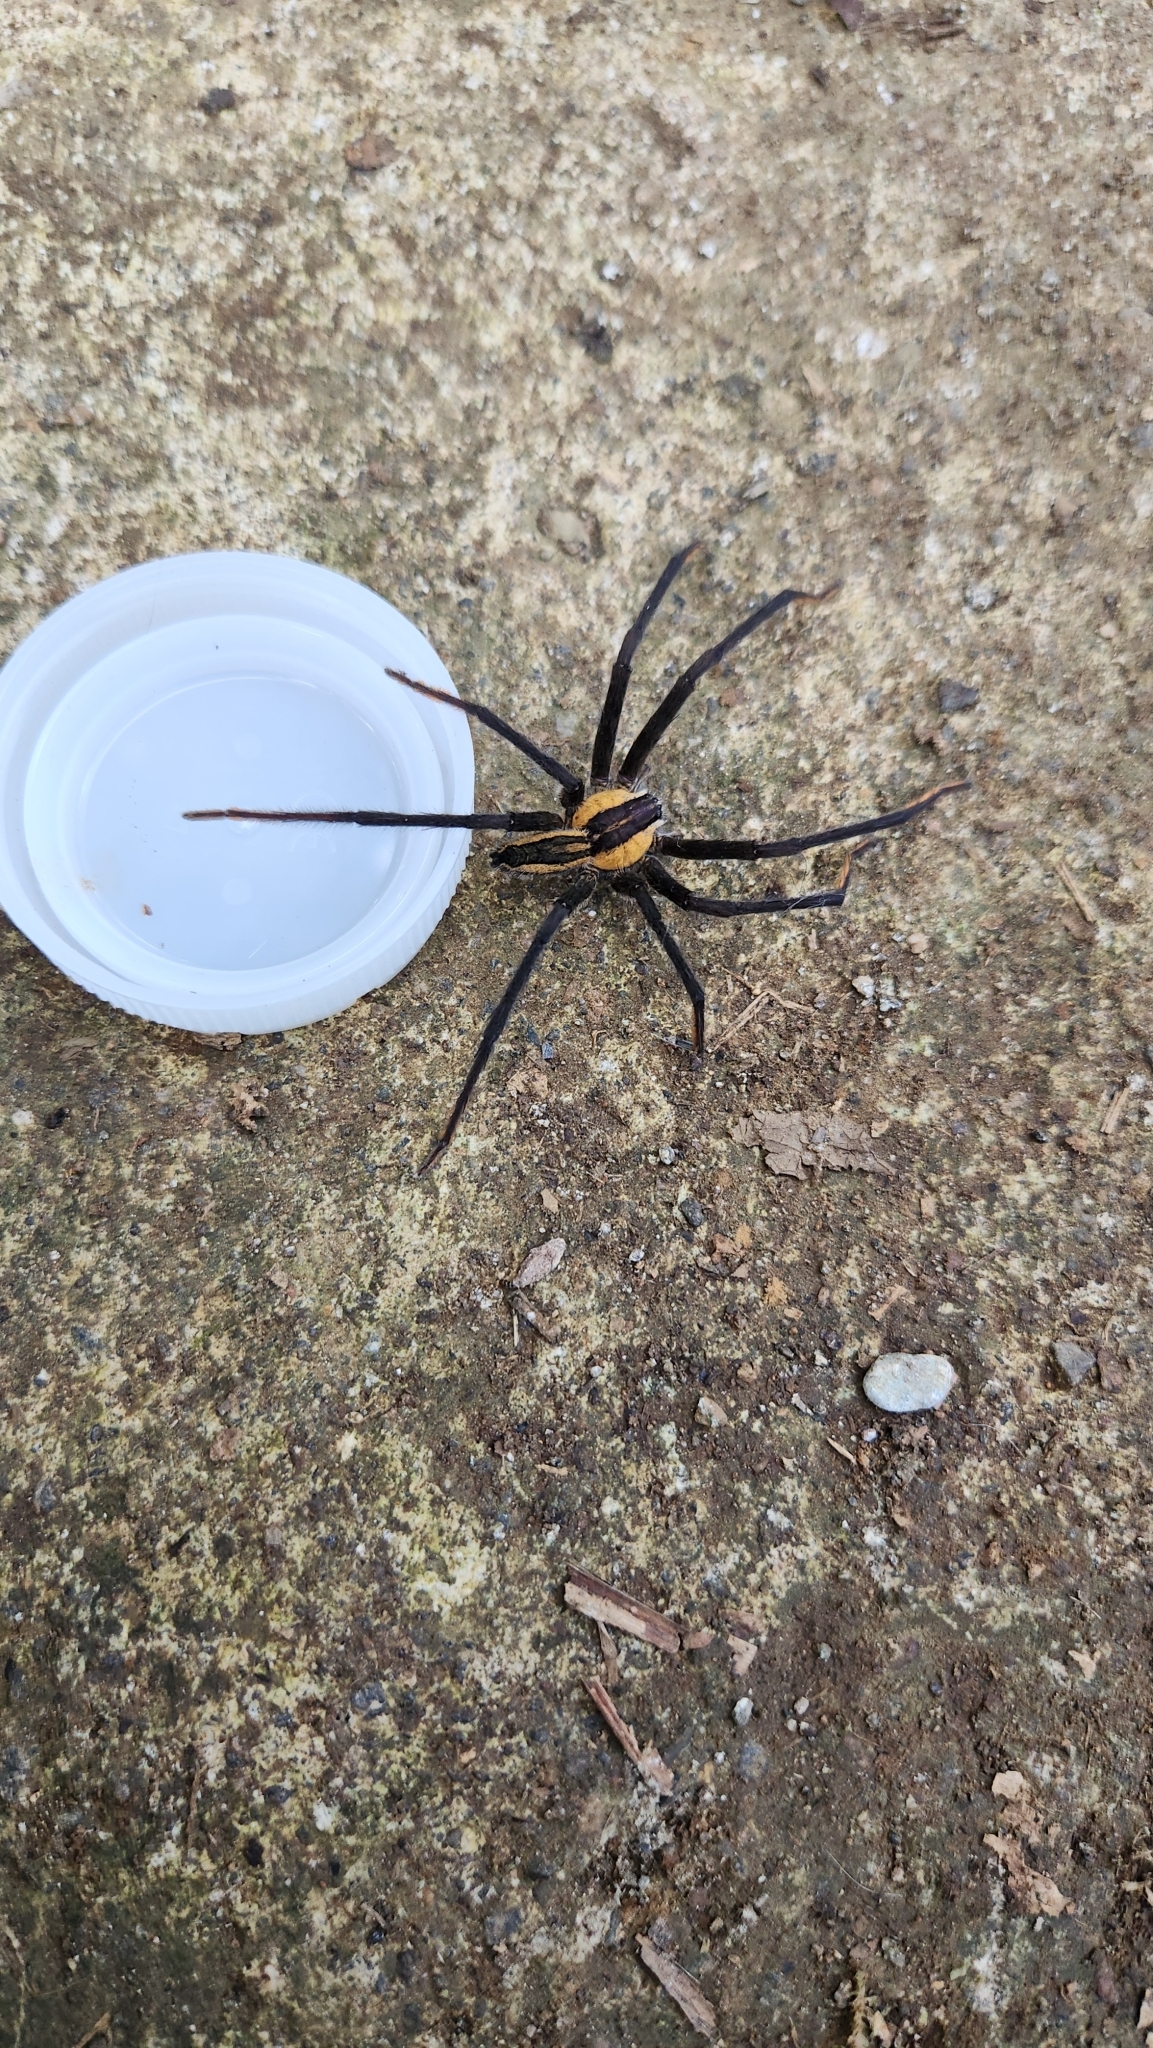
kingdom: Animalia
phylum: Arthropoda
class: Arachnida
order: Araneae
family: Trechaleidae
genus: Cupiennius
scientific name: Cupiennius getazi
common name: Wandering spiders
